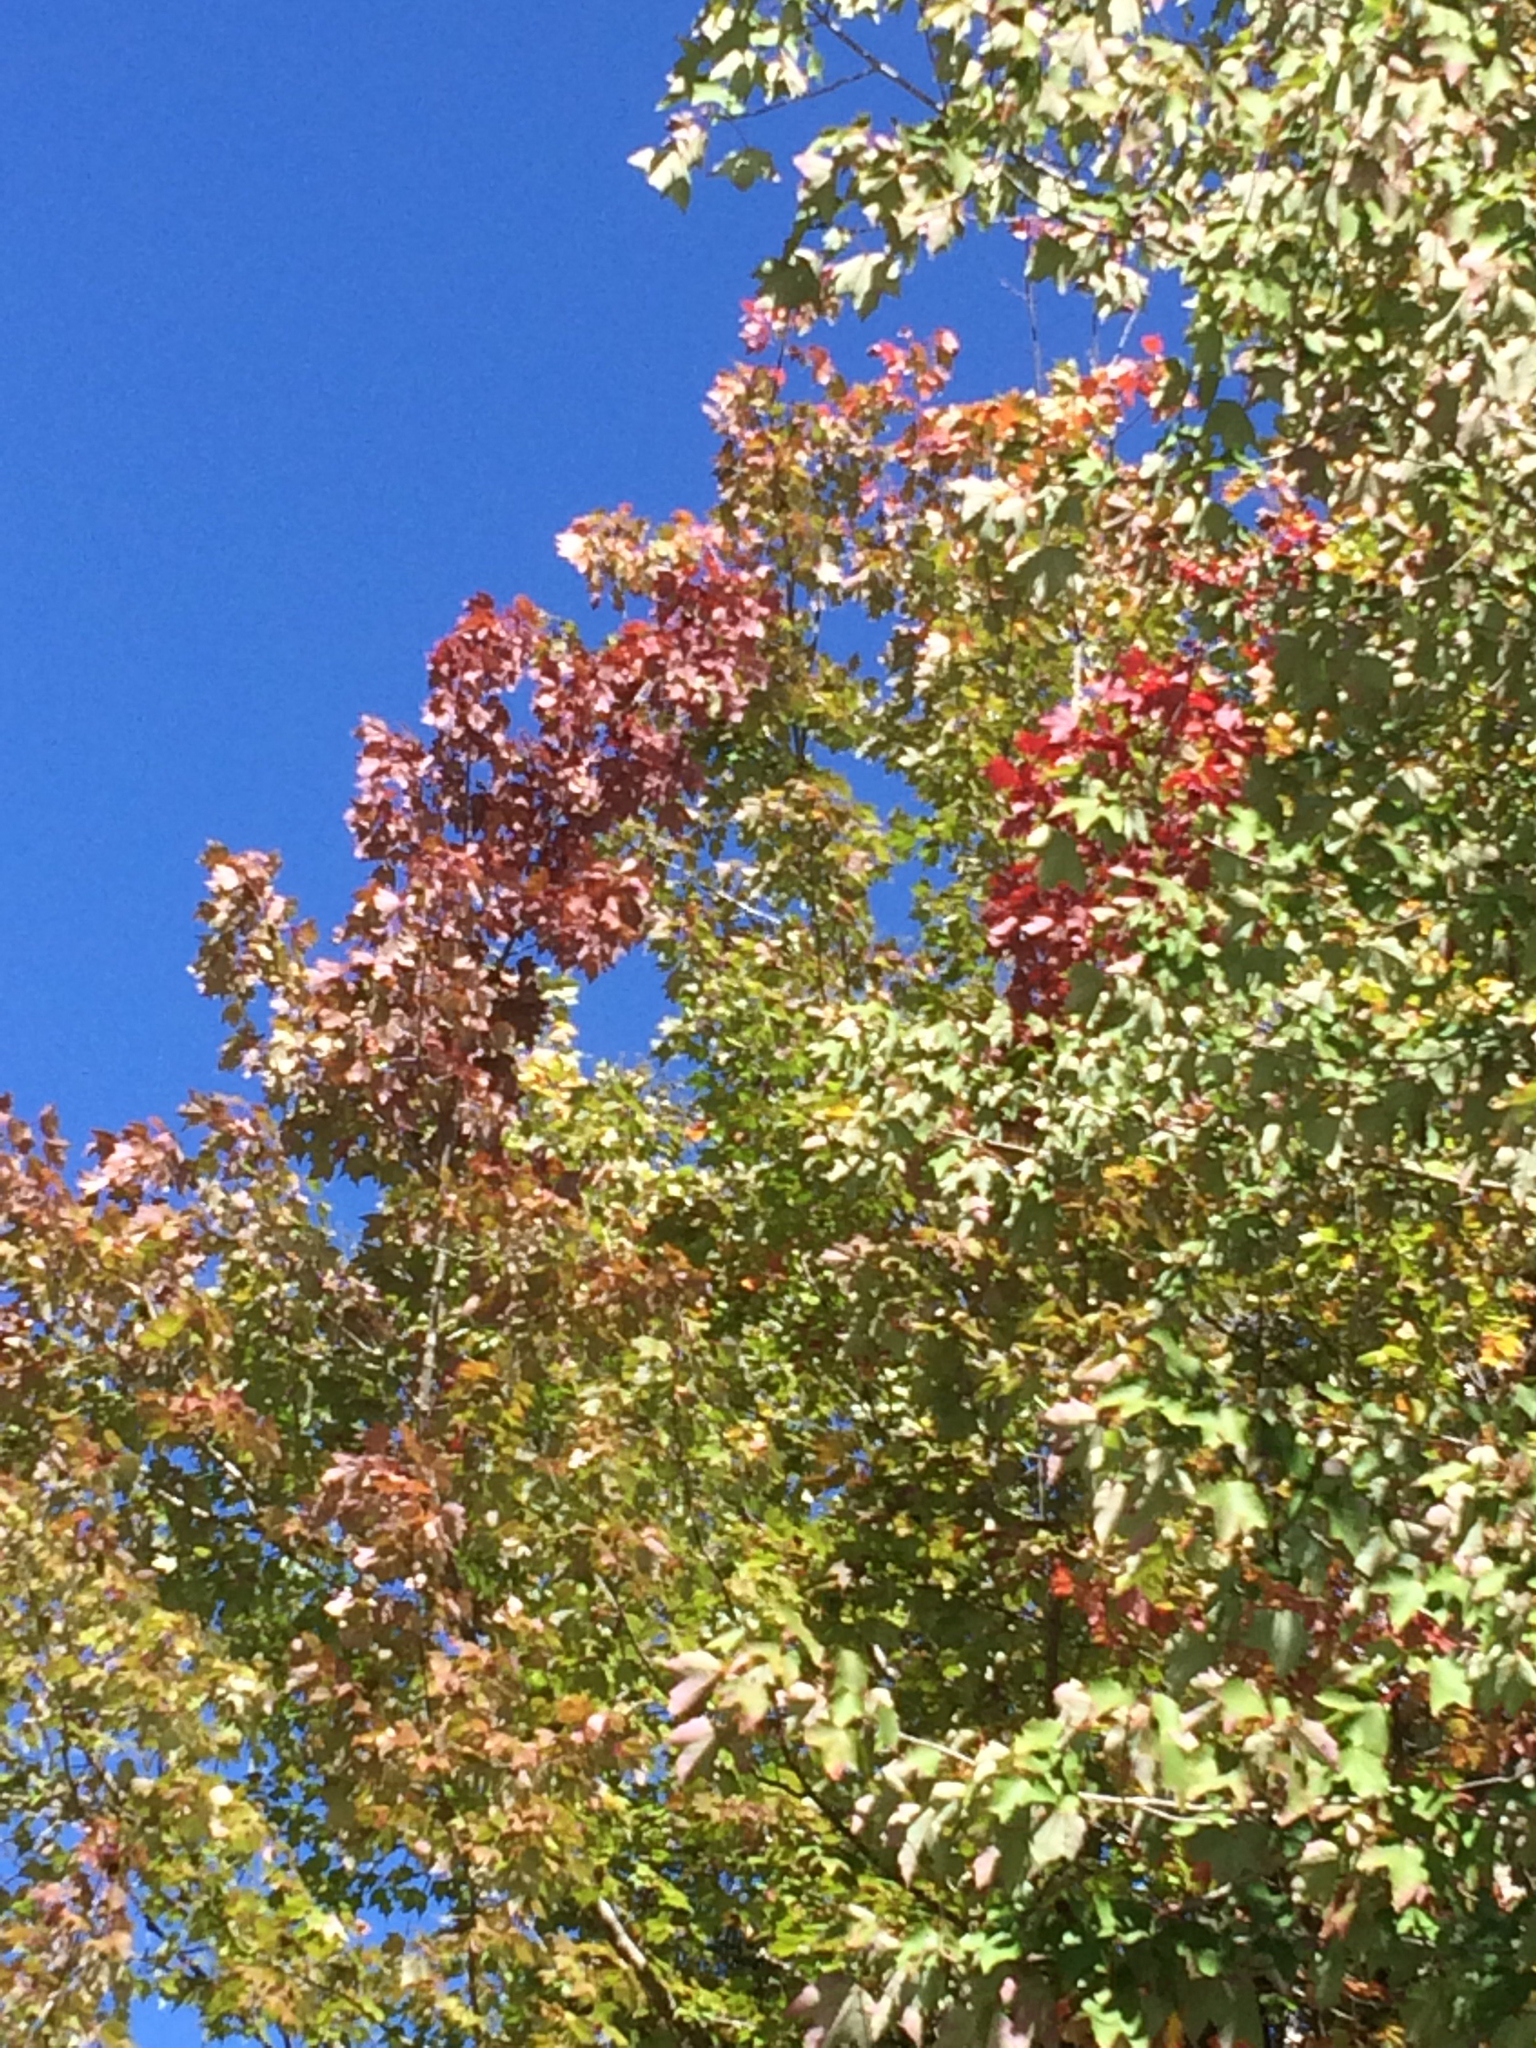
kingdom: Plantae
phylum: Tracheophyta
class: Magnoliopsida
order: Sapindales
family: Sapindaceae
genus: Acer
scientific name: Acer rubrum
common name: Red maple
